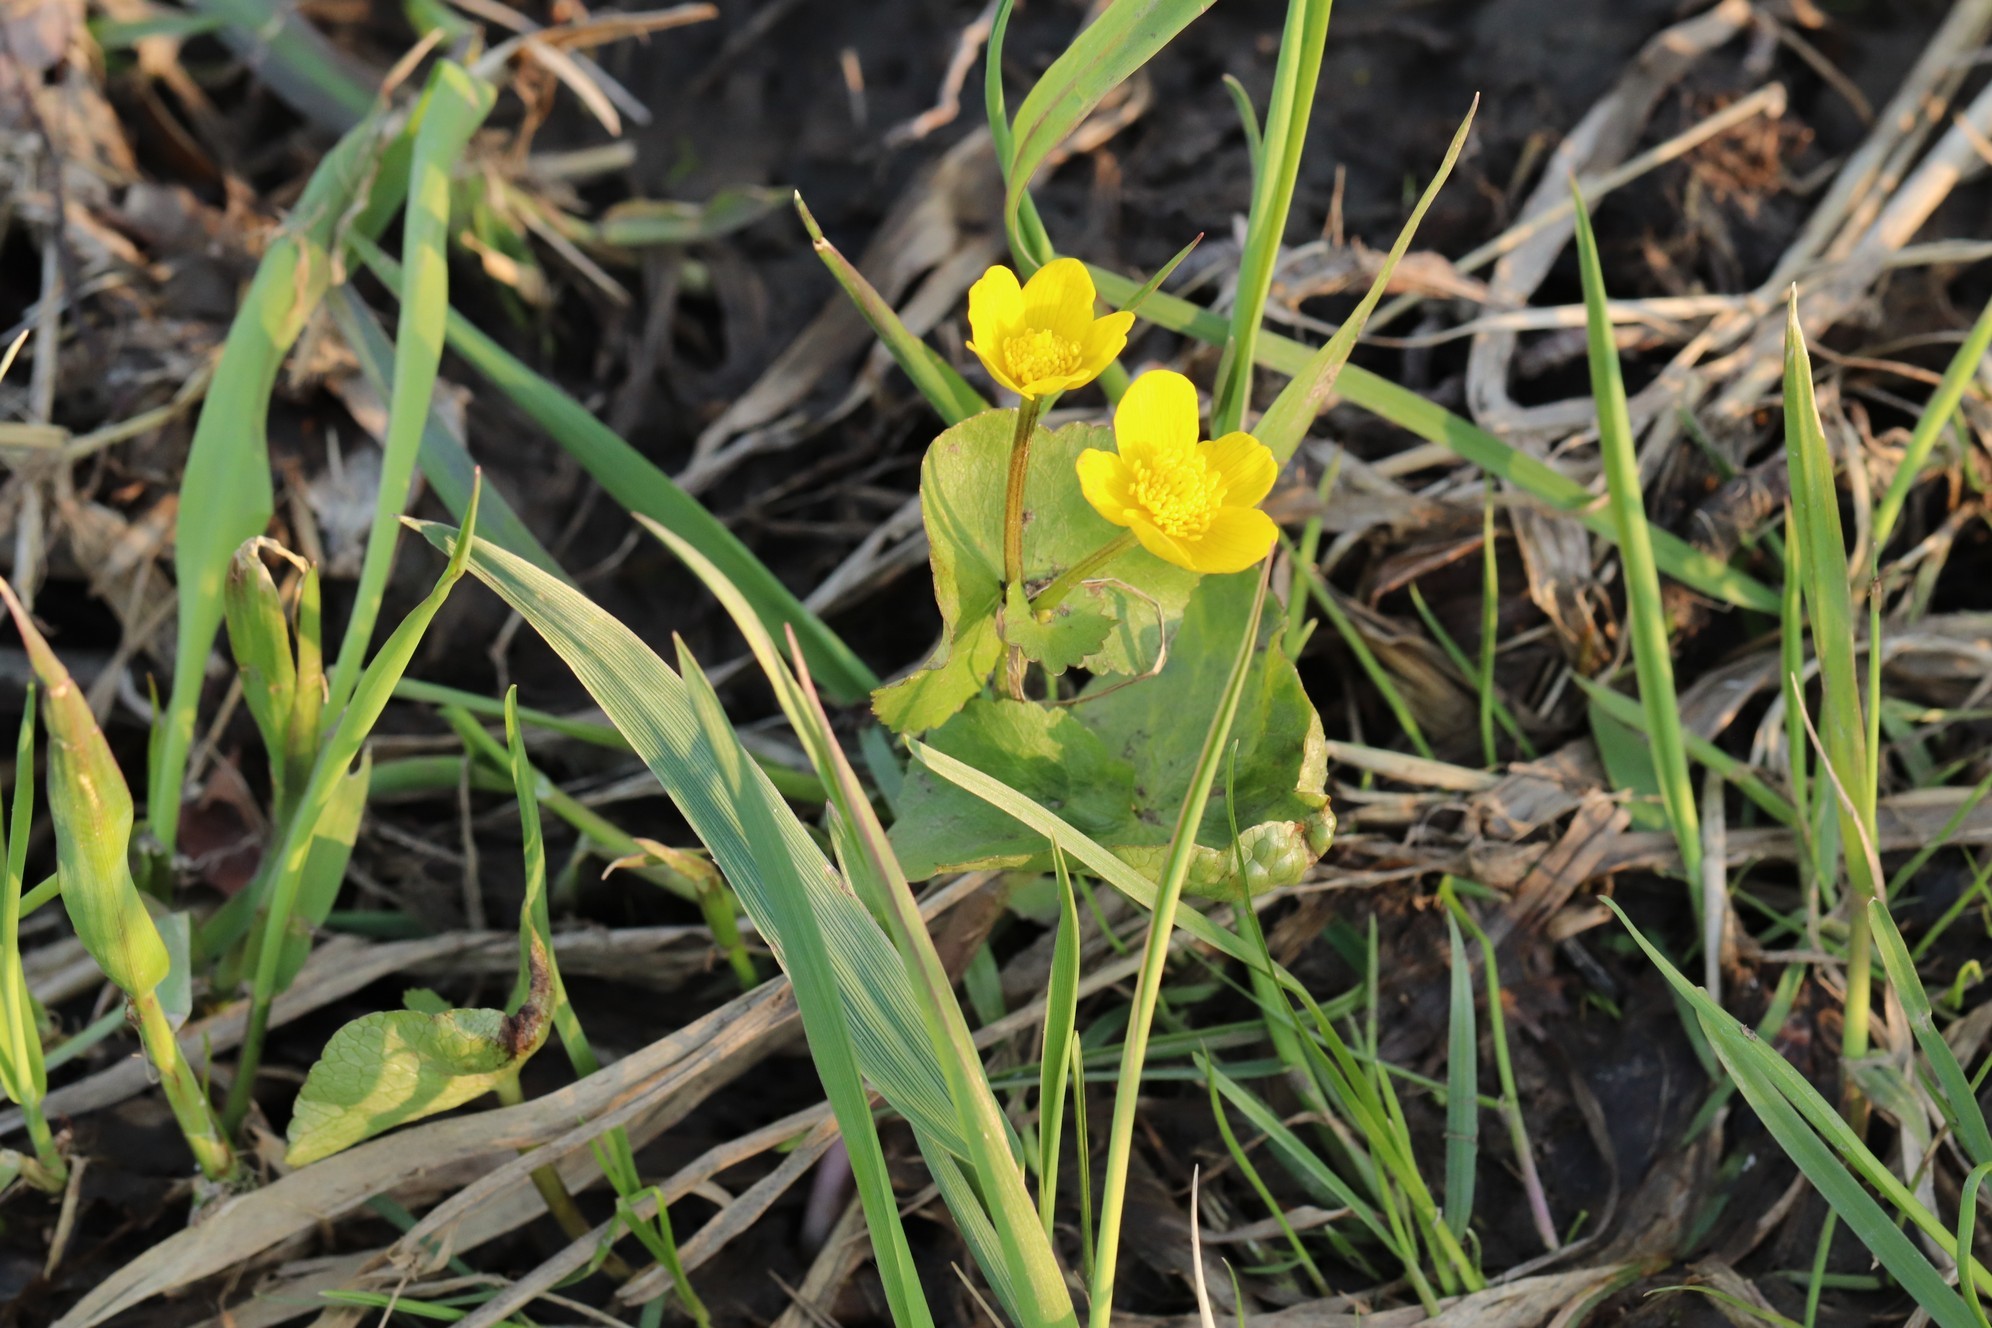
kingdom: Plantae
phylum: Tracheophyta
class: Magnoliopsida
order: Ranunculales
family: Ranunculaceae
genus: Caltha
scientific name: Caltha palustris
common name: Marsh marigold
